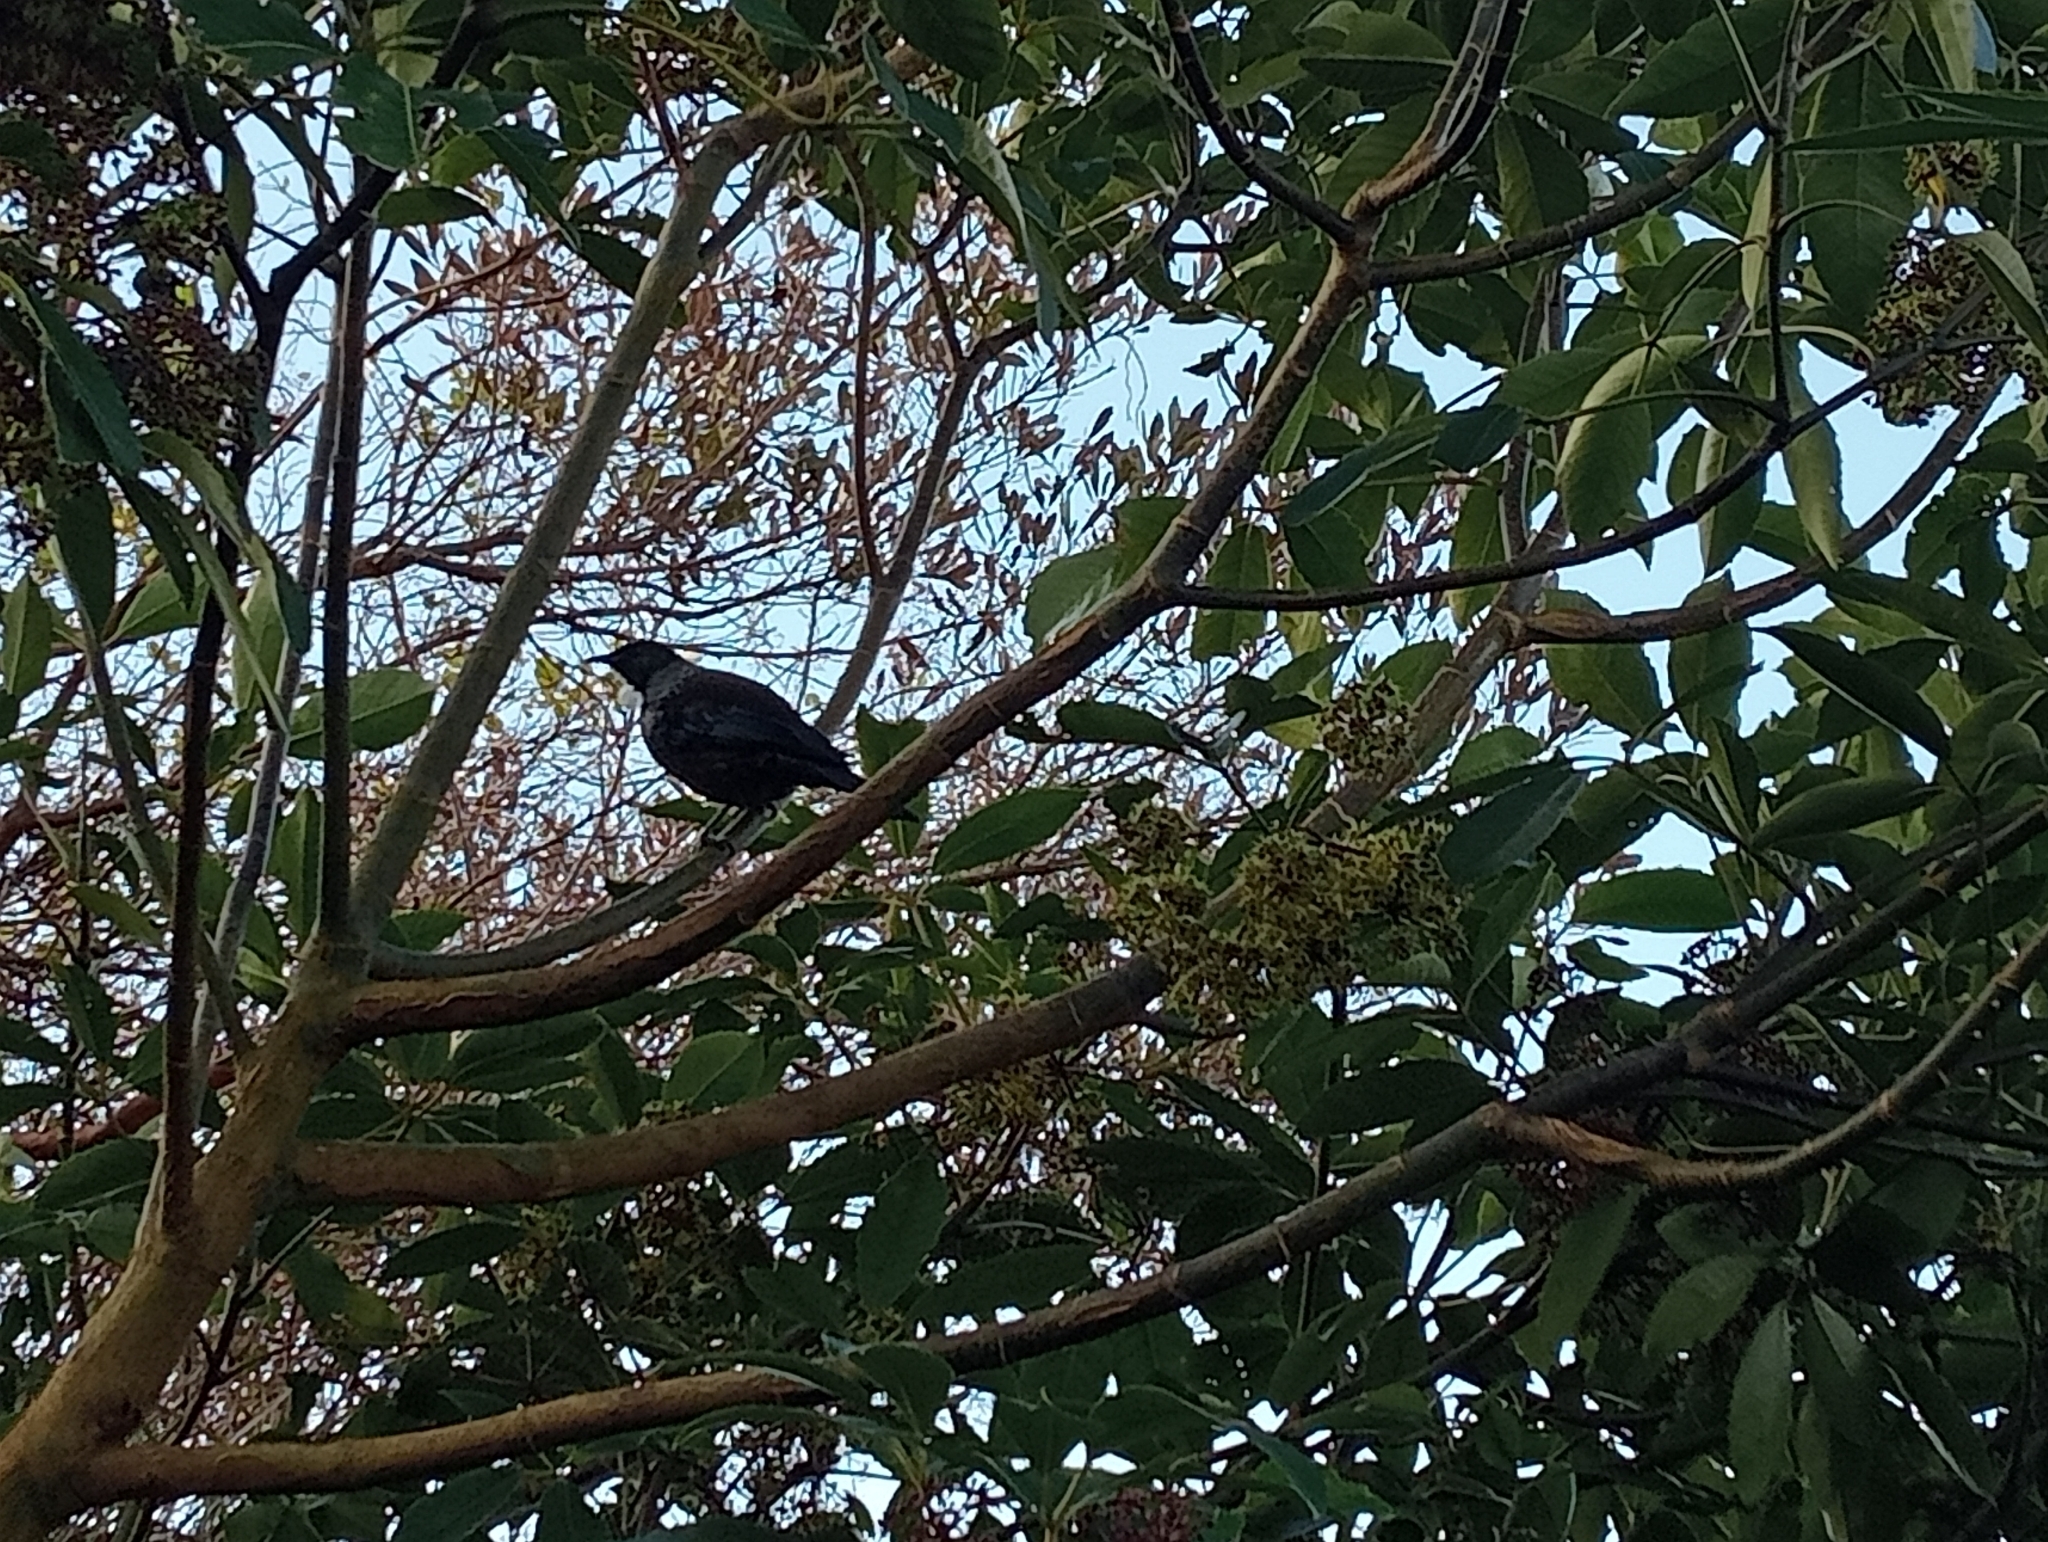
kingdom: Animalia
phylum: Chordata
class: Aves
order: Passeriformes
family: Meliphagidae
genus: Prosthemadera
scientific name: Prosthemadera novaeseelandiae
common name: Tui
